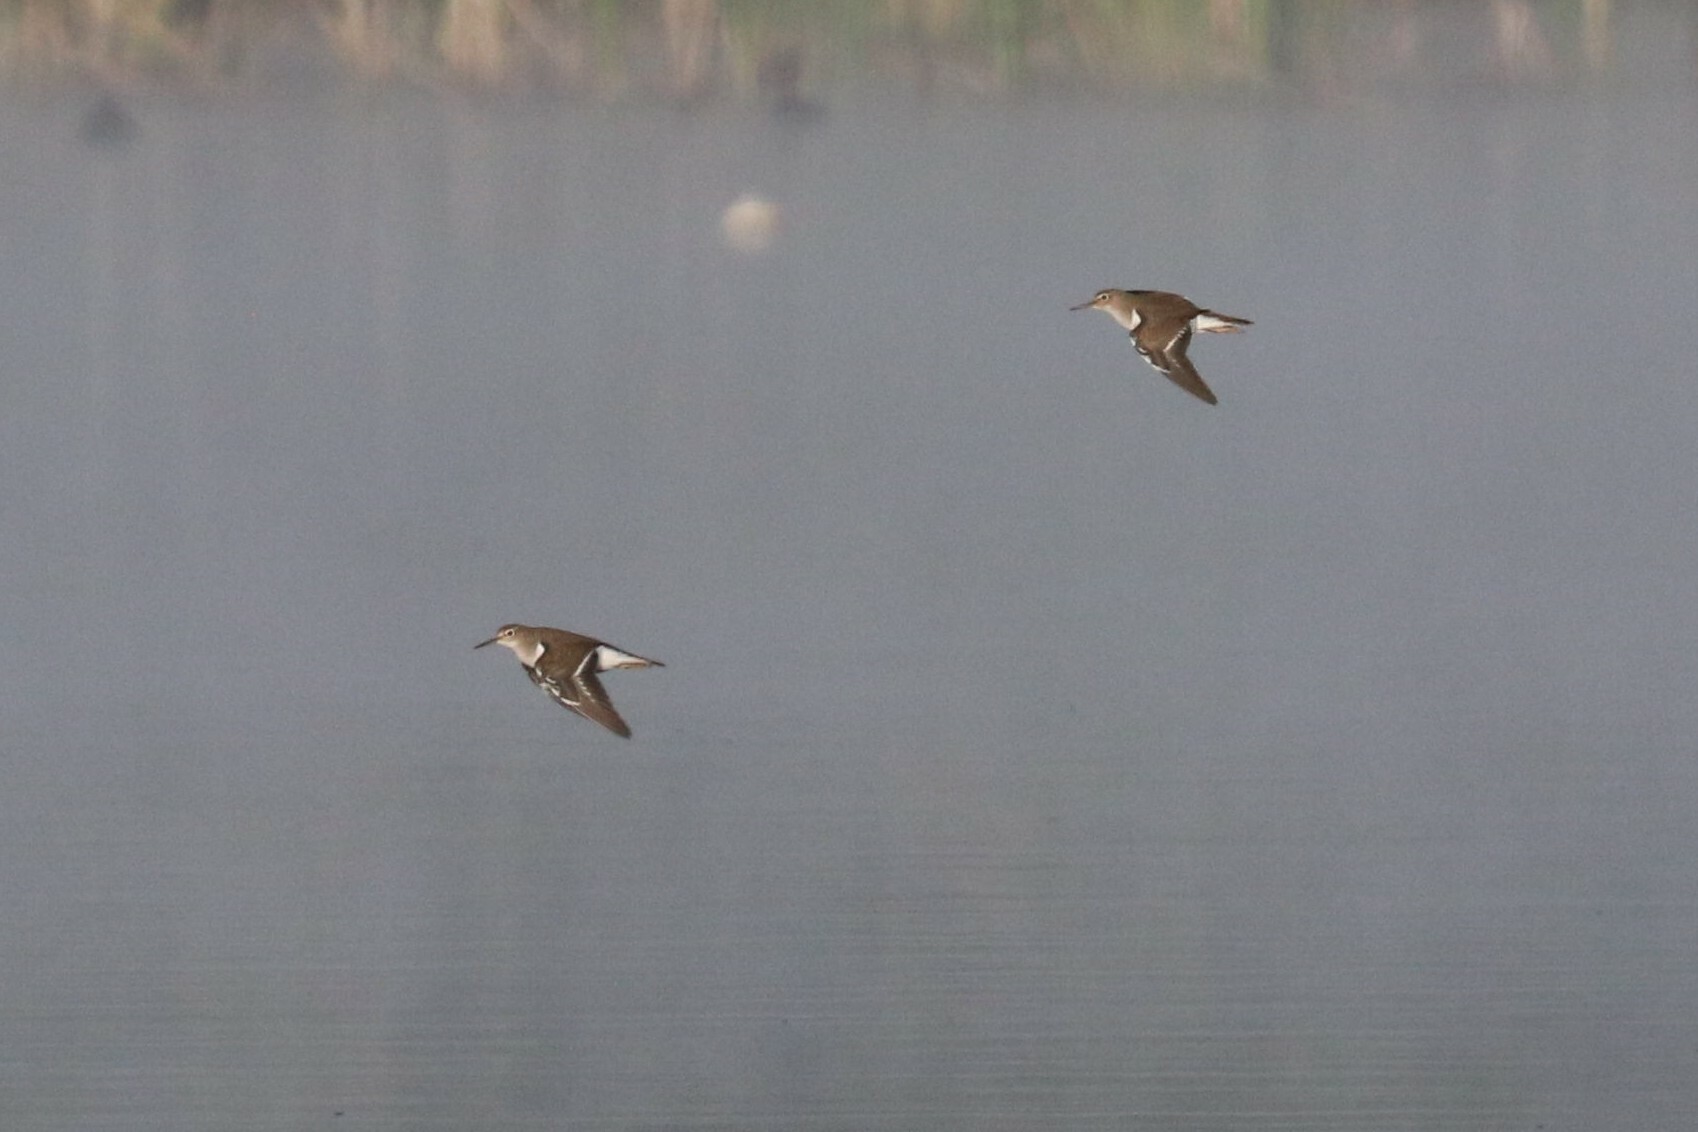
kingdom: Animalia
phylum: Chordata
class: Aves
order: Charadriiformes
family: Scolopacidae
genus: Actitis
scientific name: Actitis hypoleucos
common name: Common sandpiper
